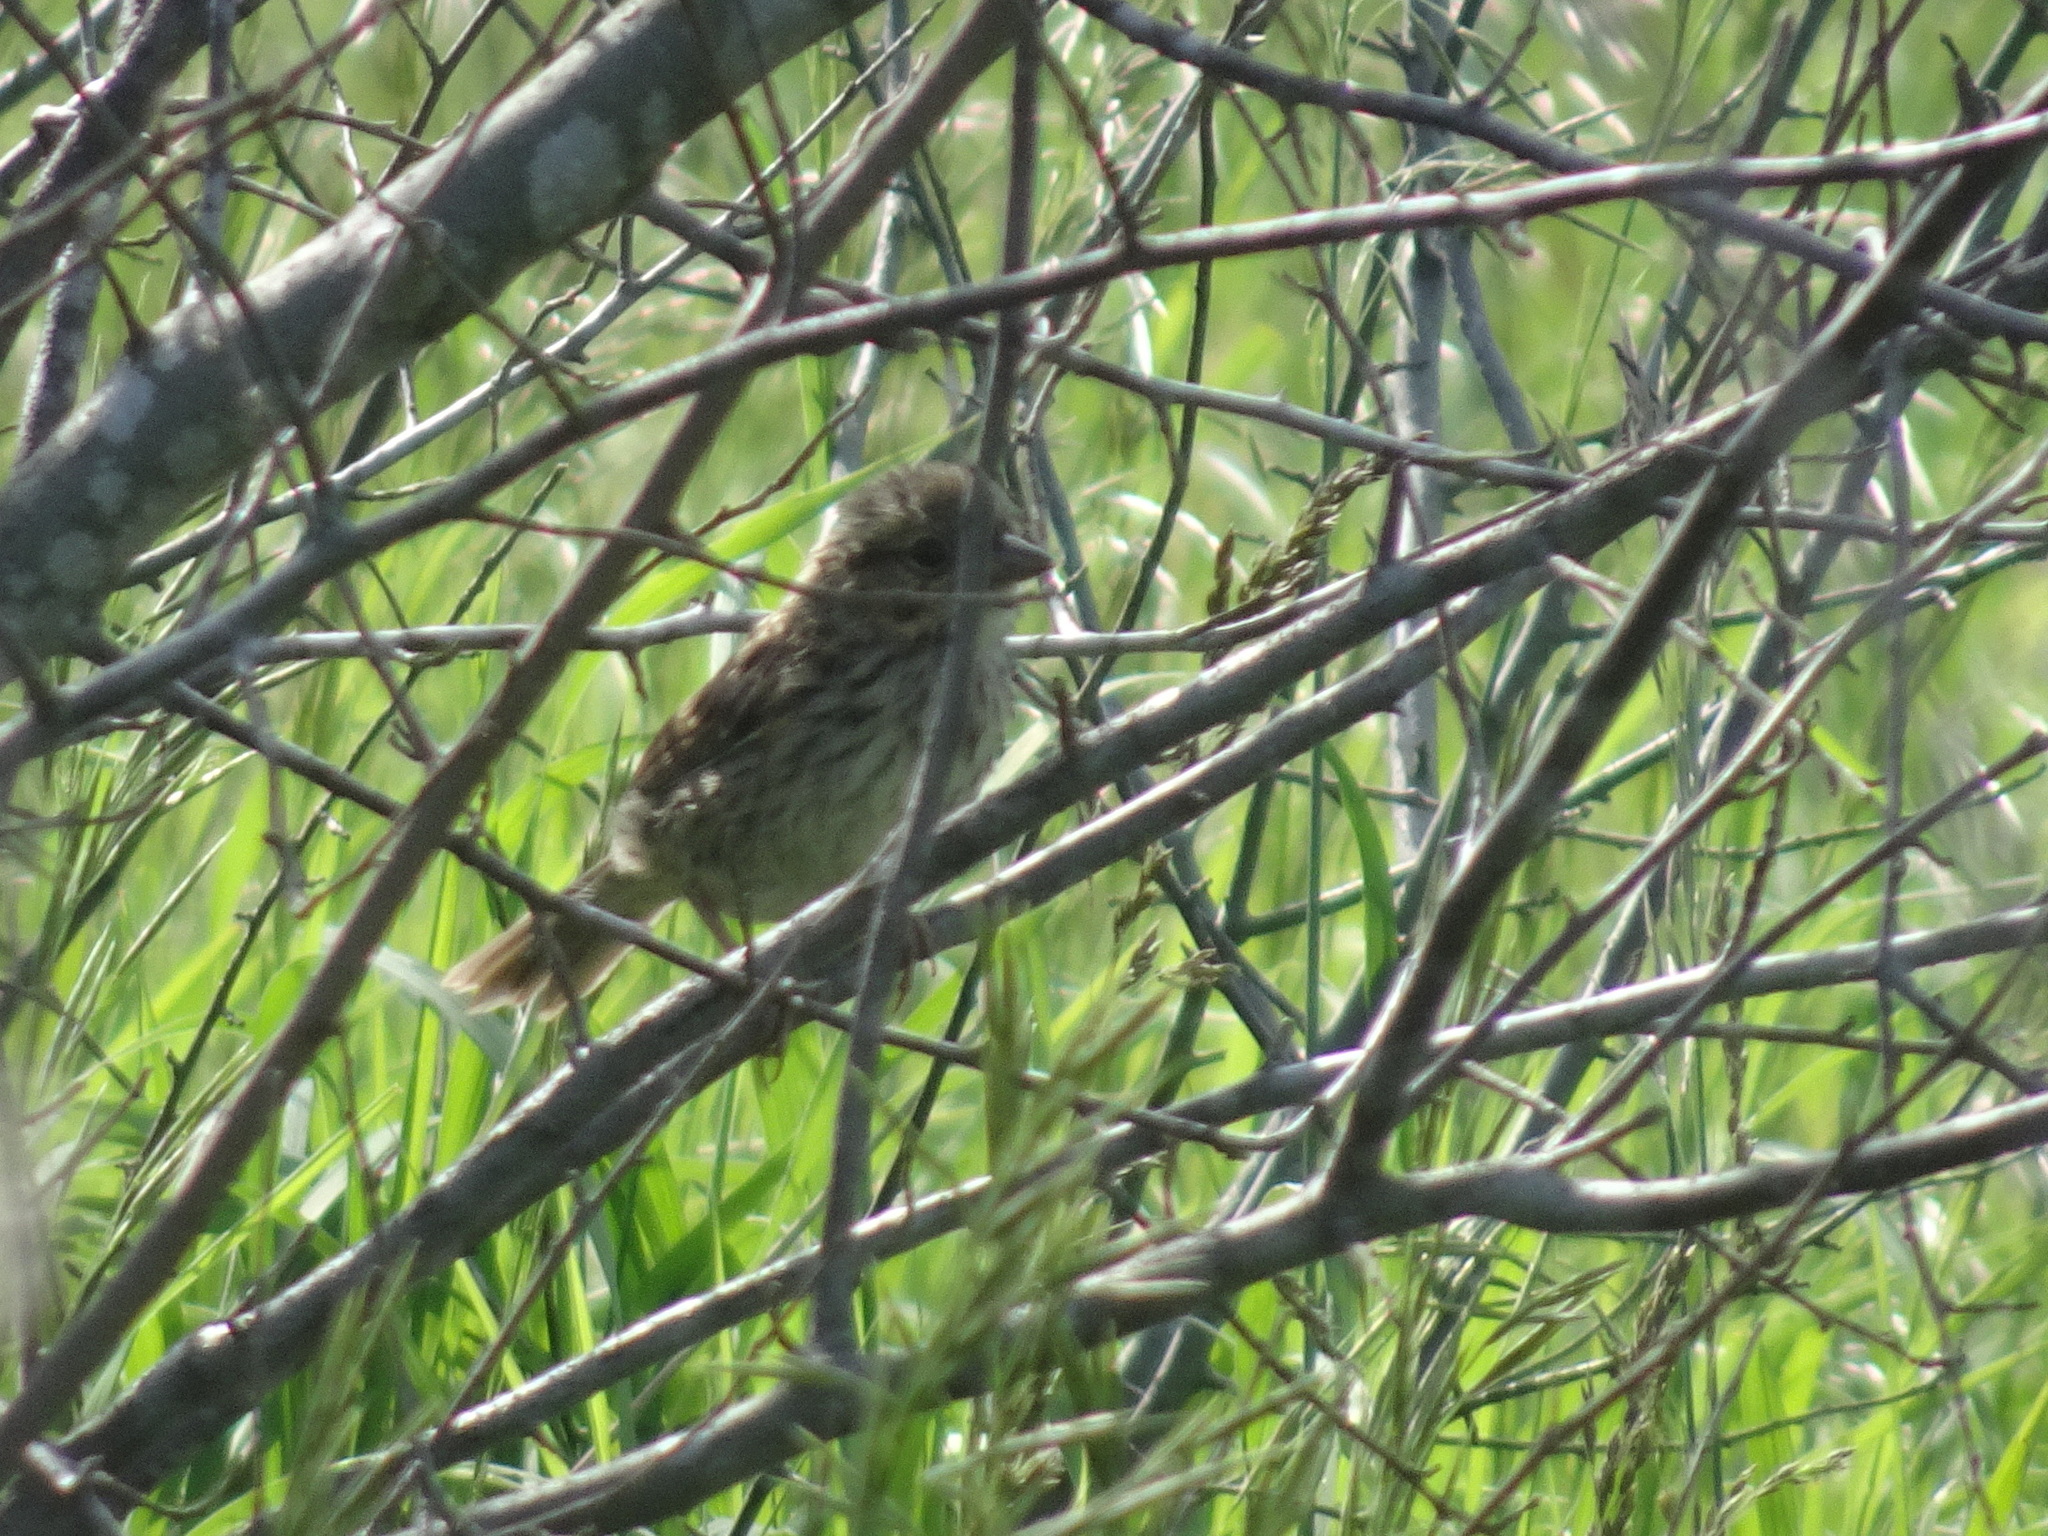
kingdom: Animalia
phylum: Chordata
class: Aves
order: Passeriformes
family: Passerellidae
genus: Melospiza
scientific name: Melospiza melodia
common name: Song sparrow
